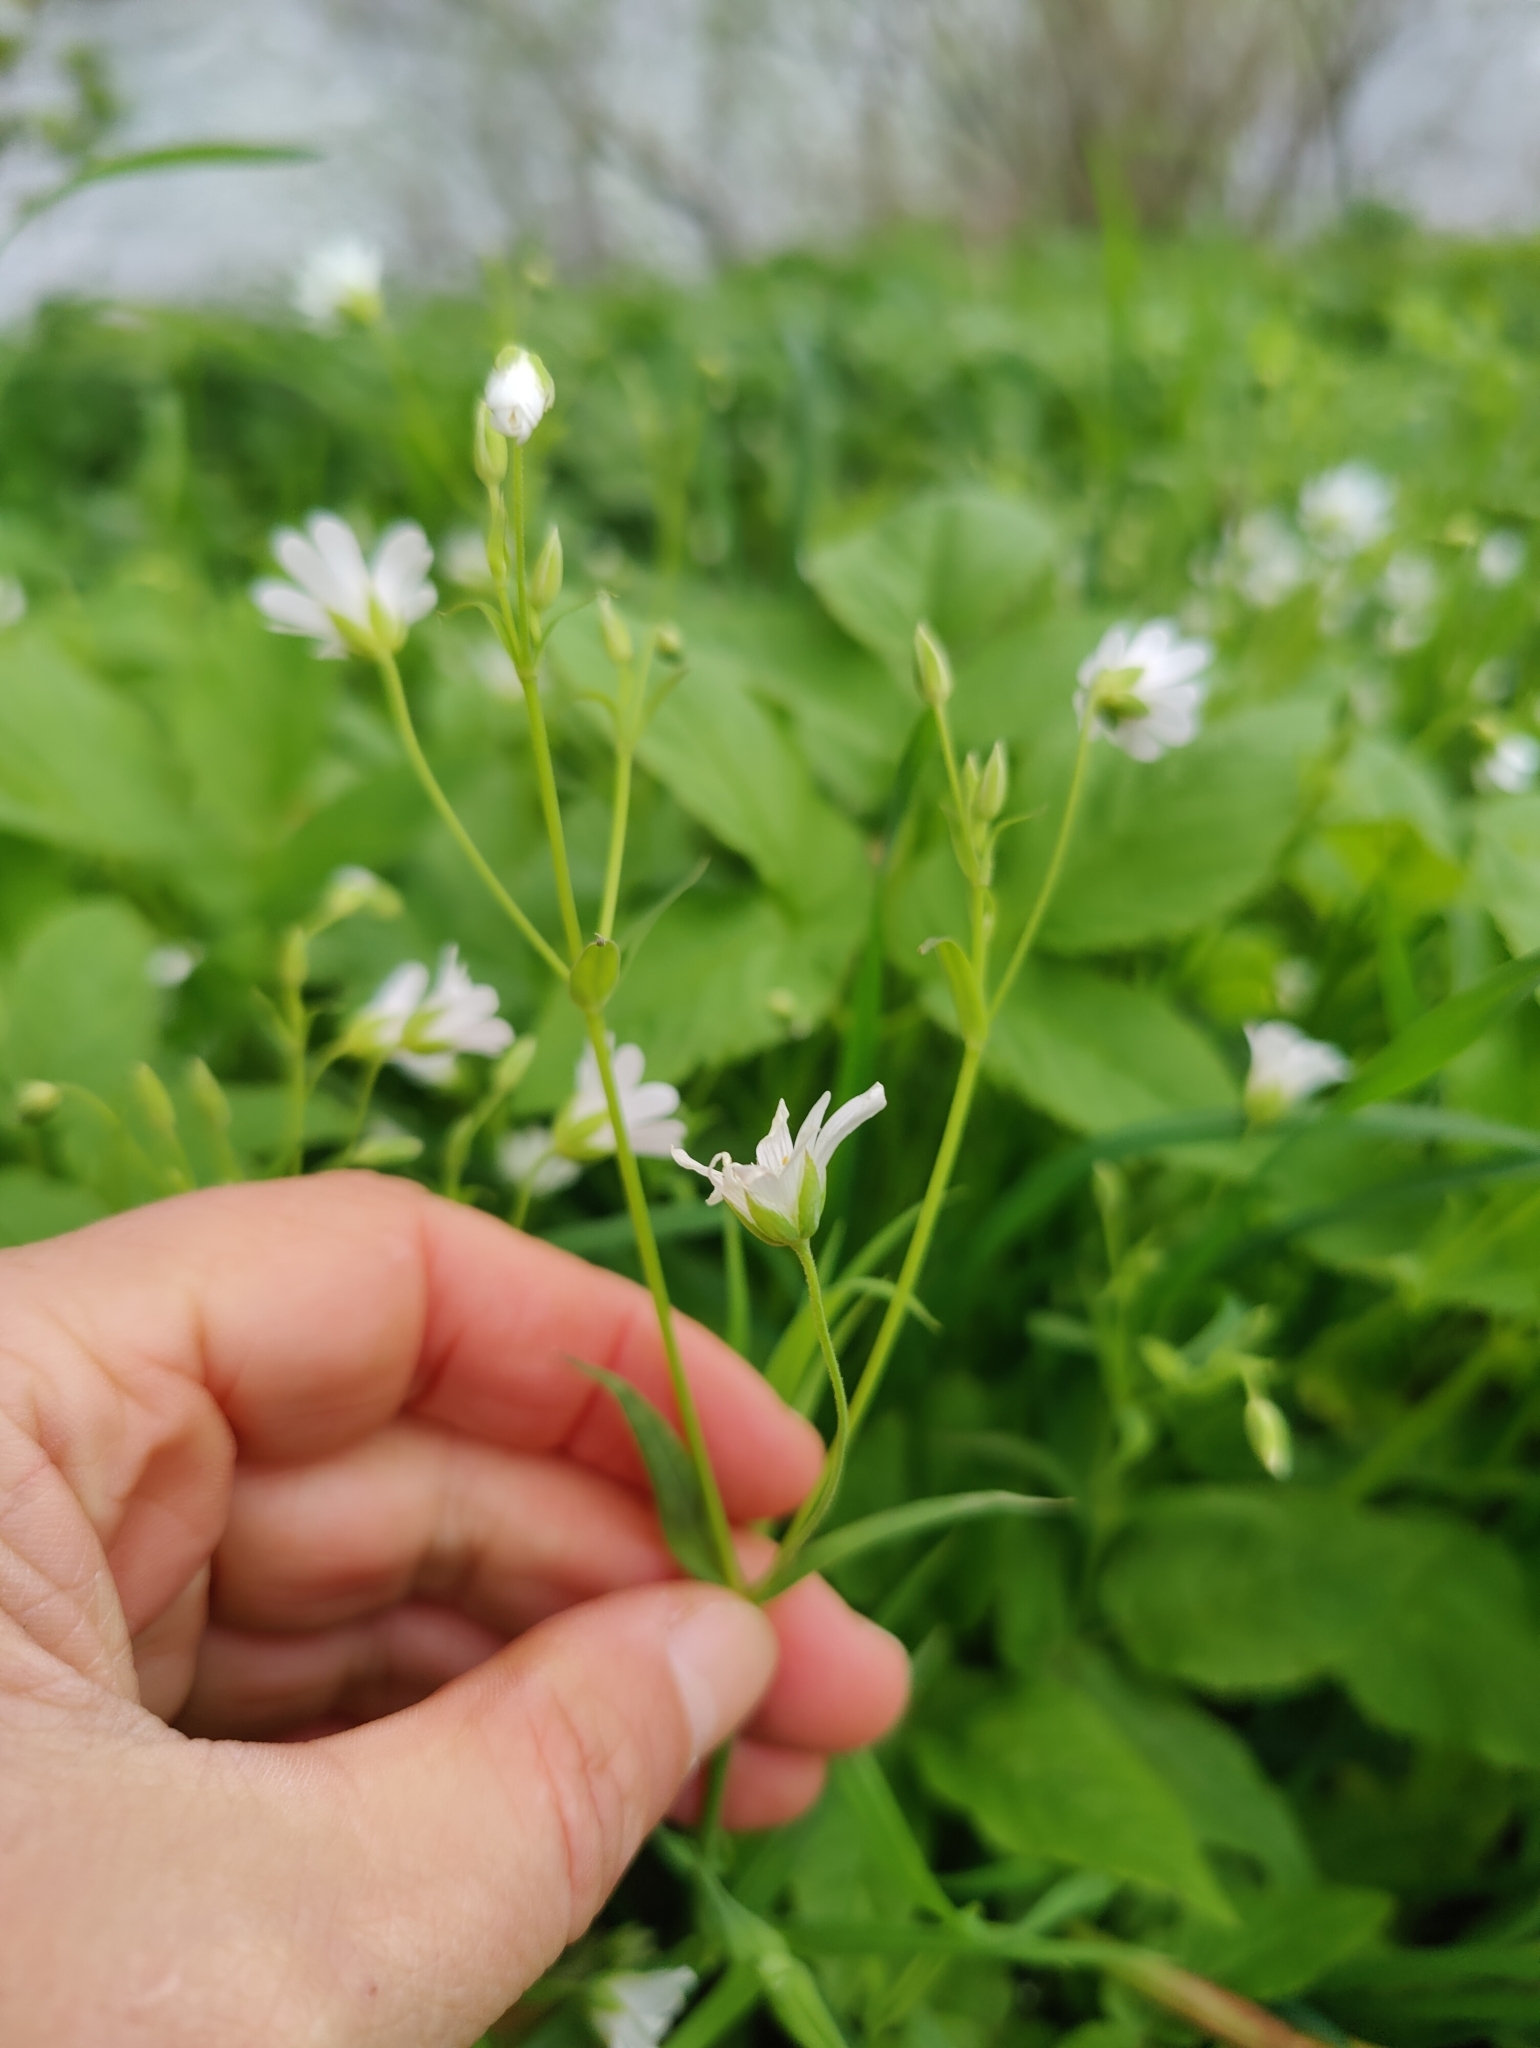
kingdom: Plantae
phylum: Tracheophyta
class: Magnoliopsida
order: Caryophyllales
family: Caryophyllaceae
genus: Rabelera
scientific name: Rabelera holostea
